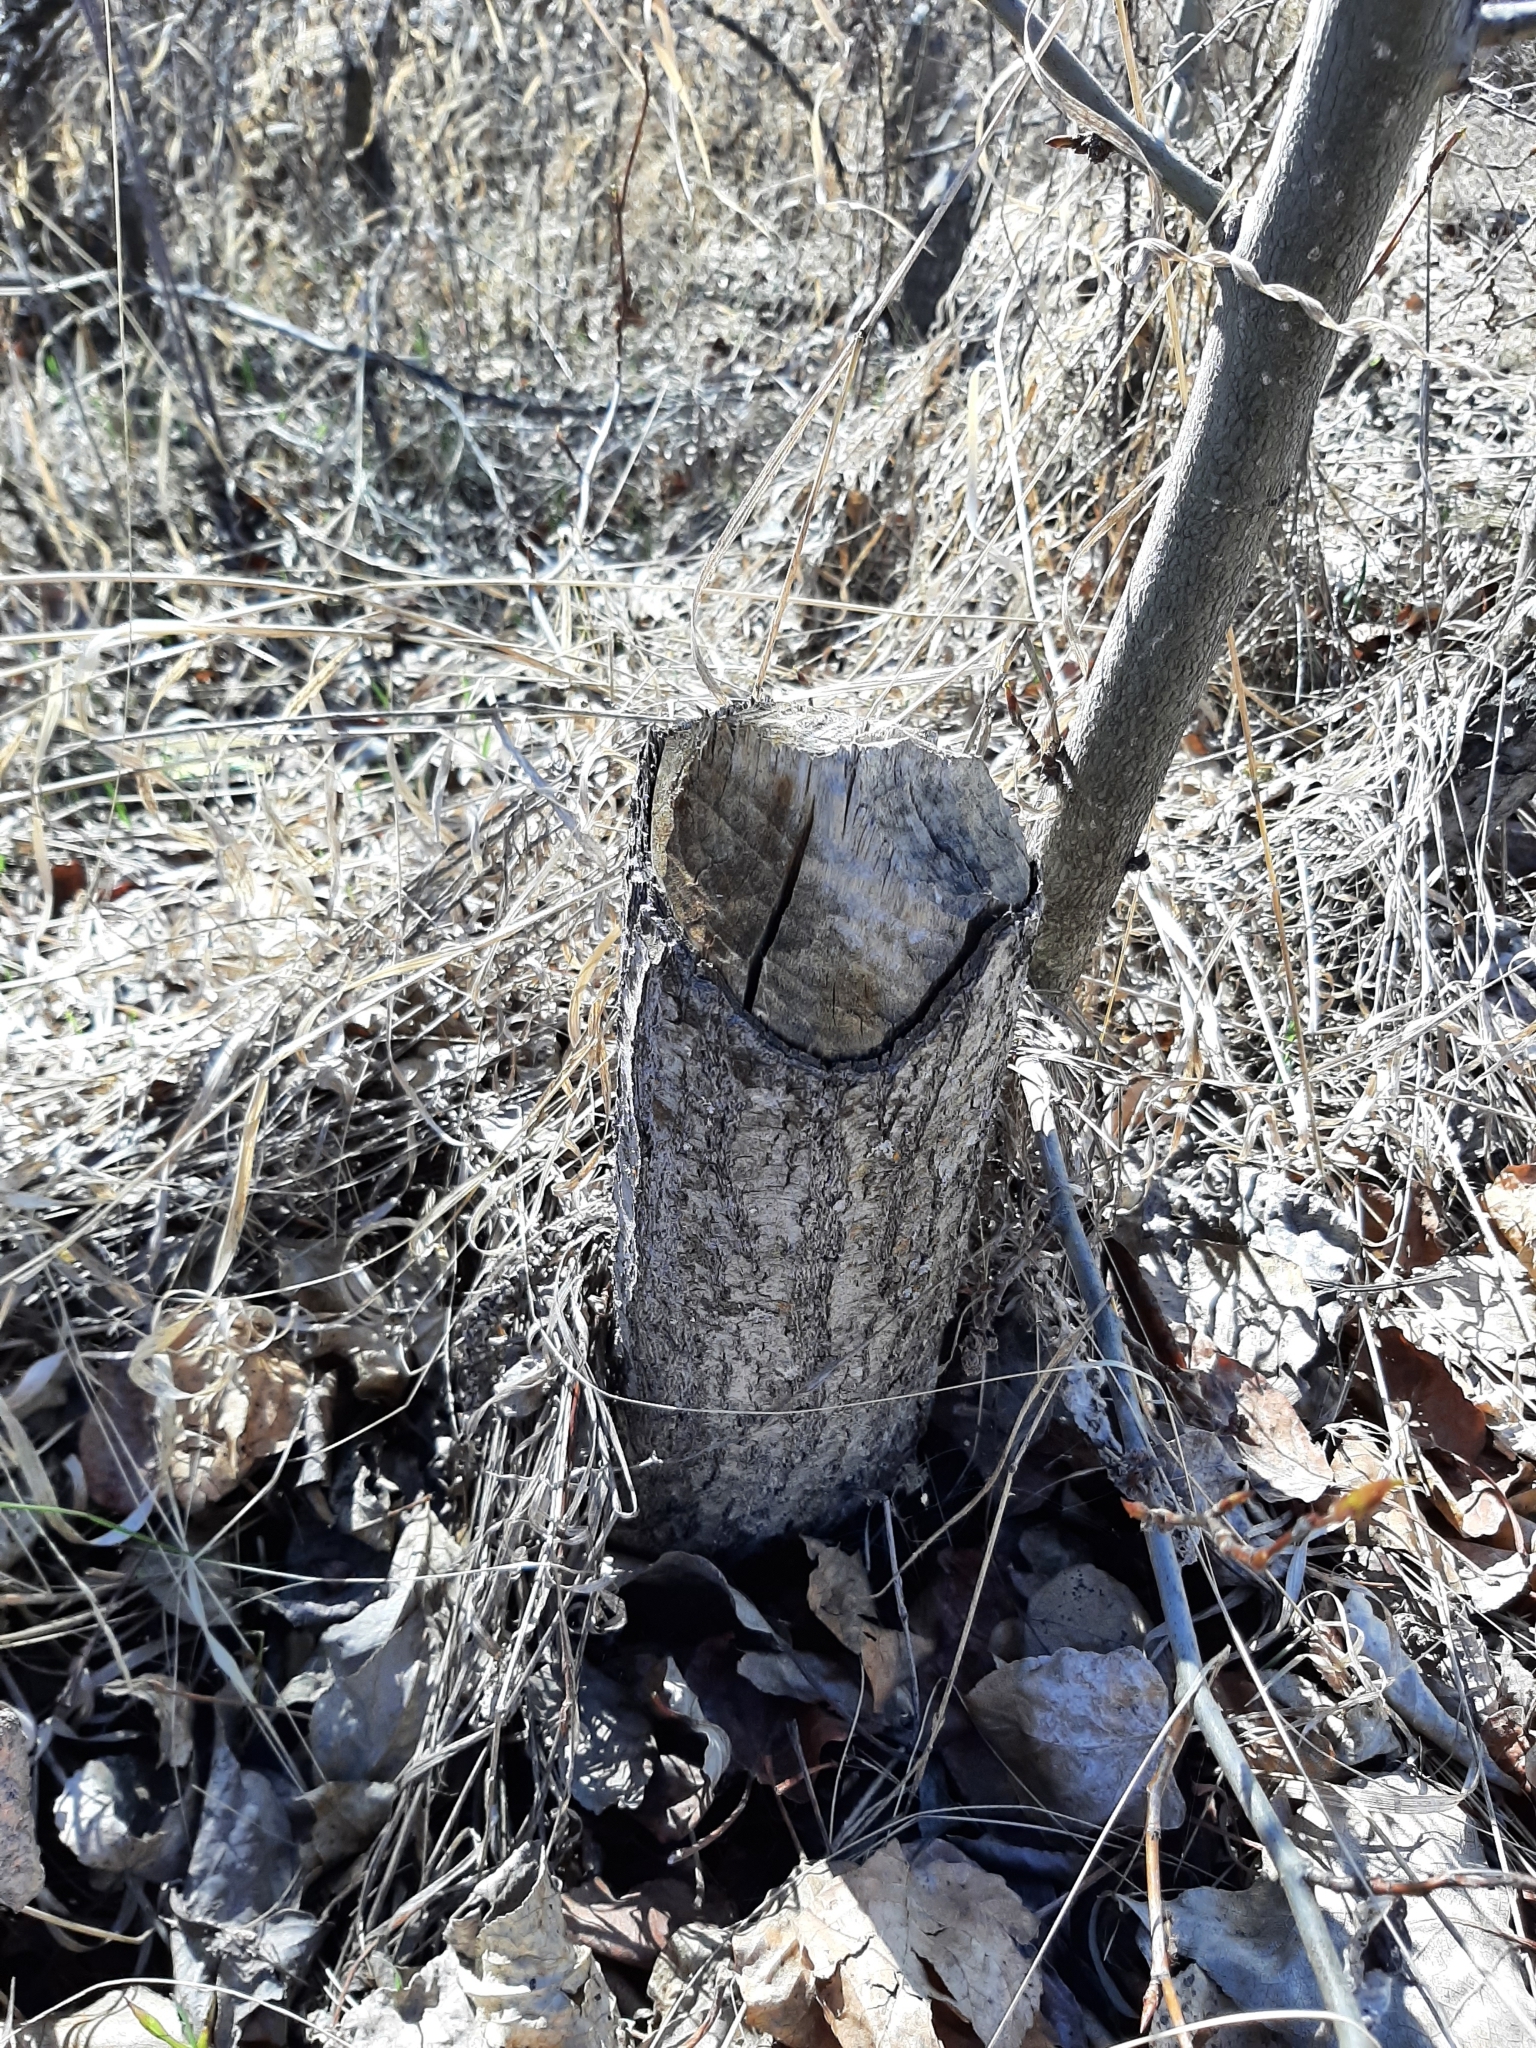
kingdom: Animalia
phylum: Chordata
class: Mammalia
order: Rodentia
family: Castoridae
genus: Castor
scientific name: Castor canadensis
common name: American beaver
